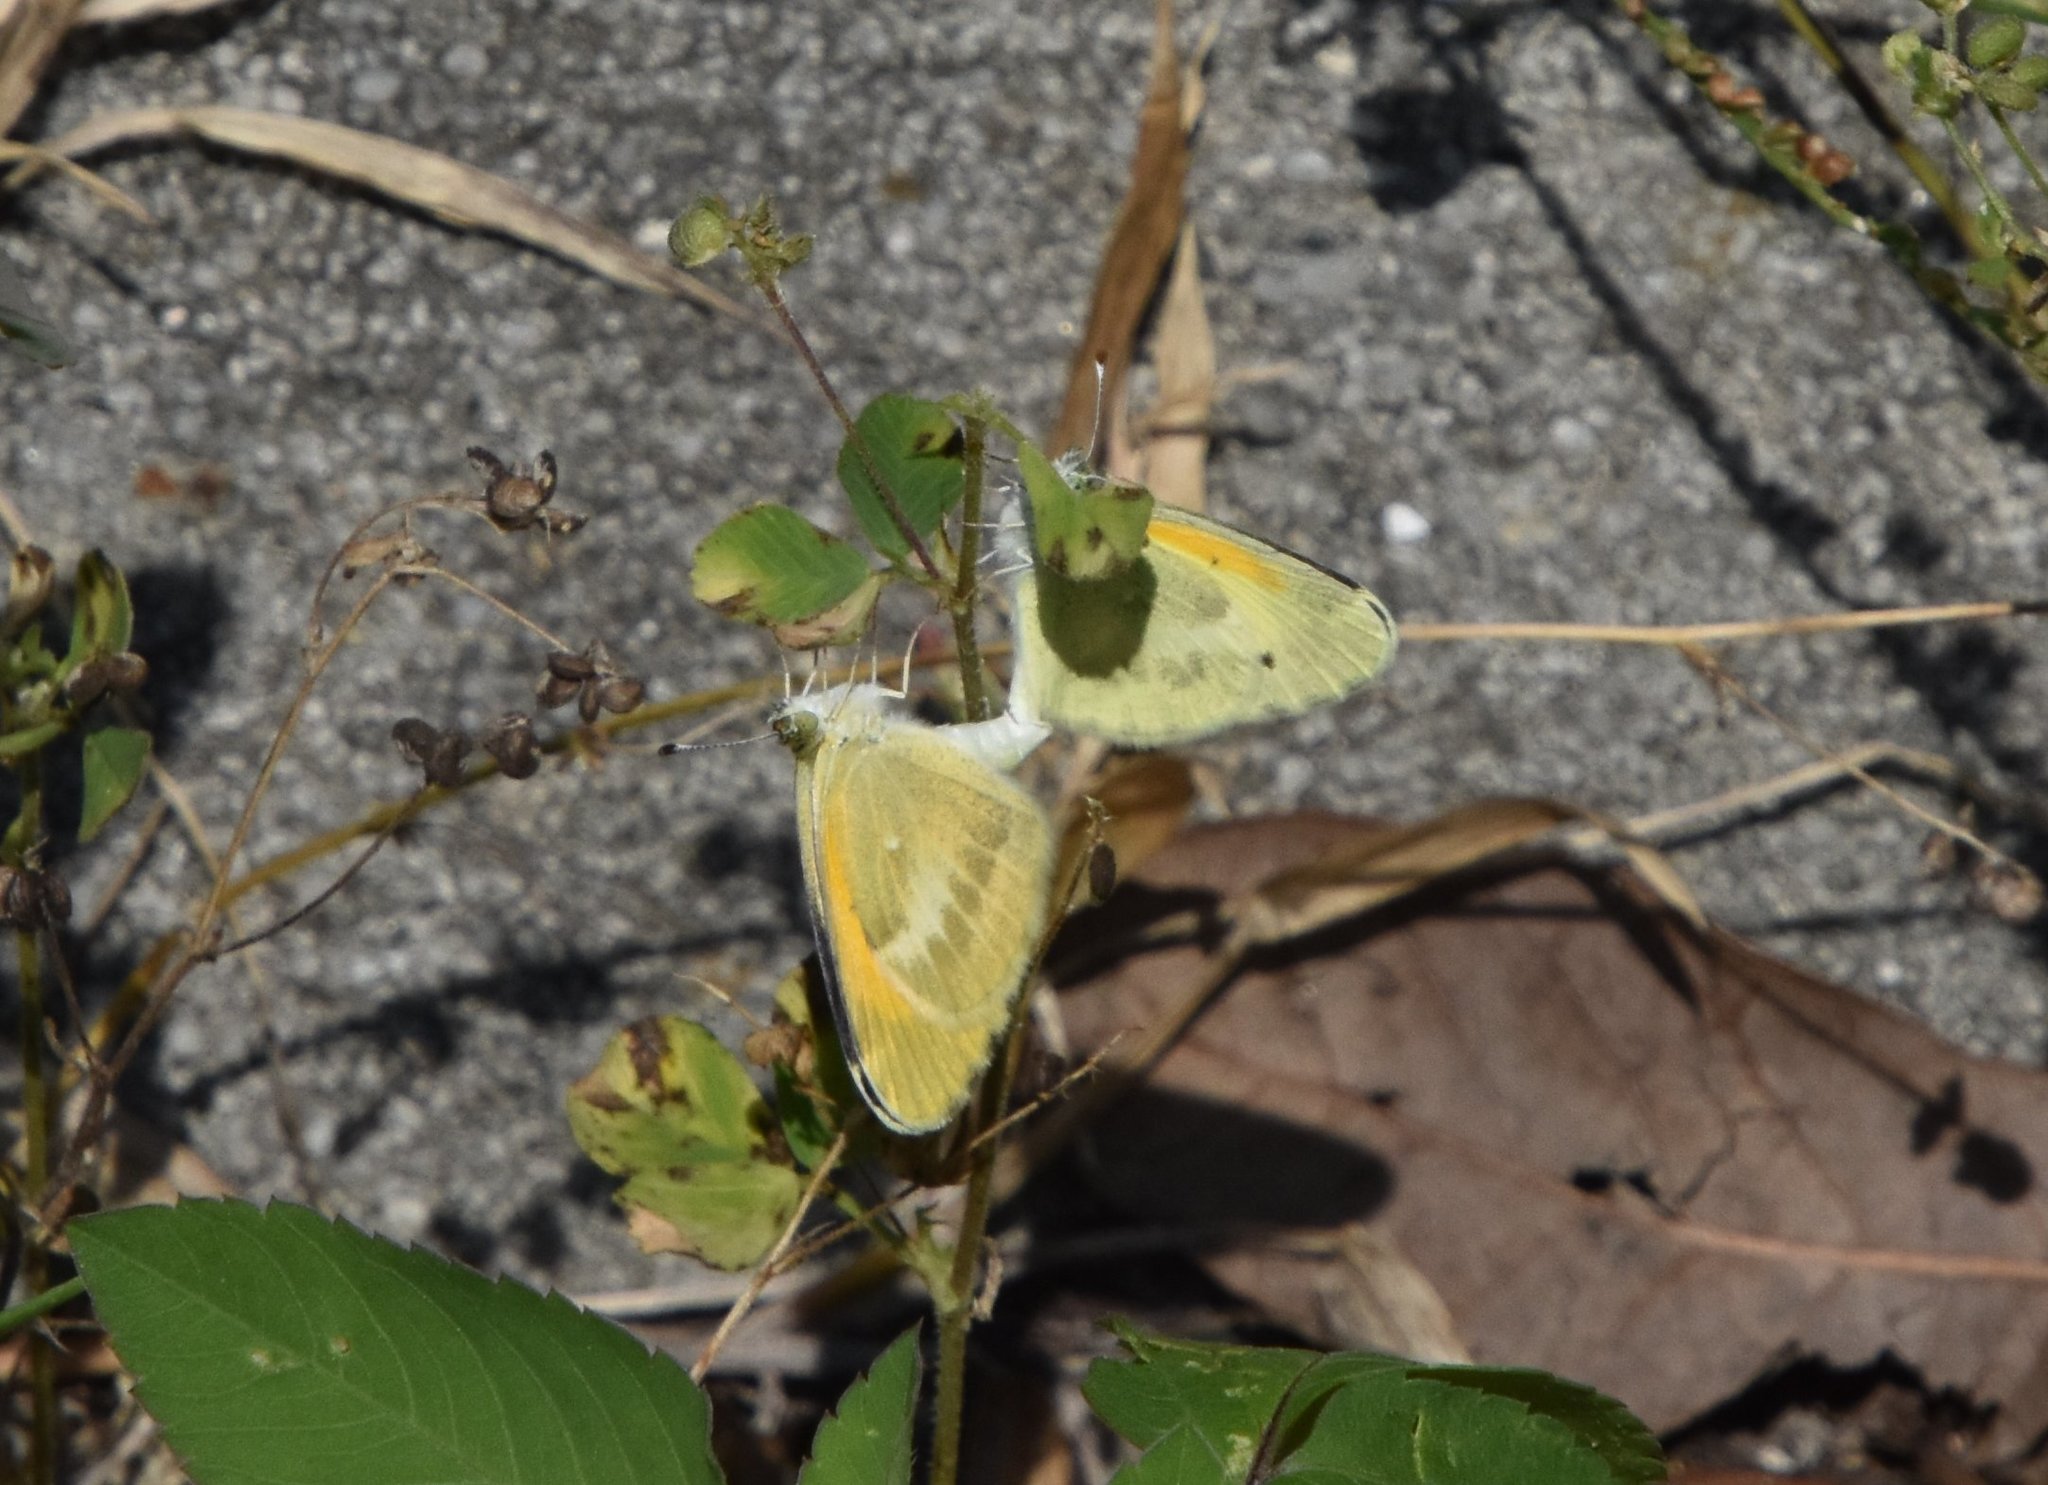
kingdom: Animalia
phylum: Arthropoda
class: Insecta
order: Lepidoptera
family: Pieridae
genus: Nathalis
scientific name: Nathalis iole
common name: Dainty sulphur
